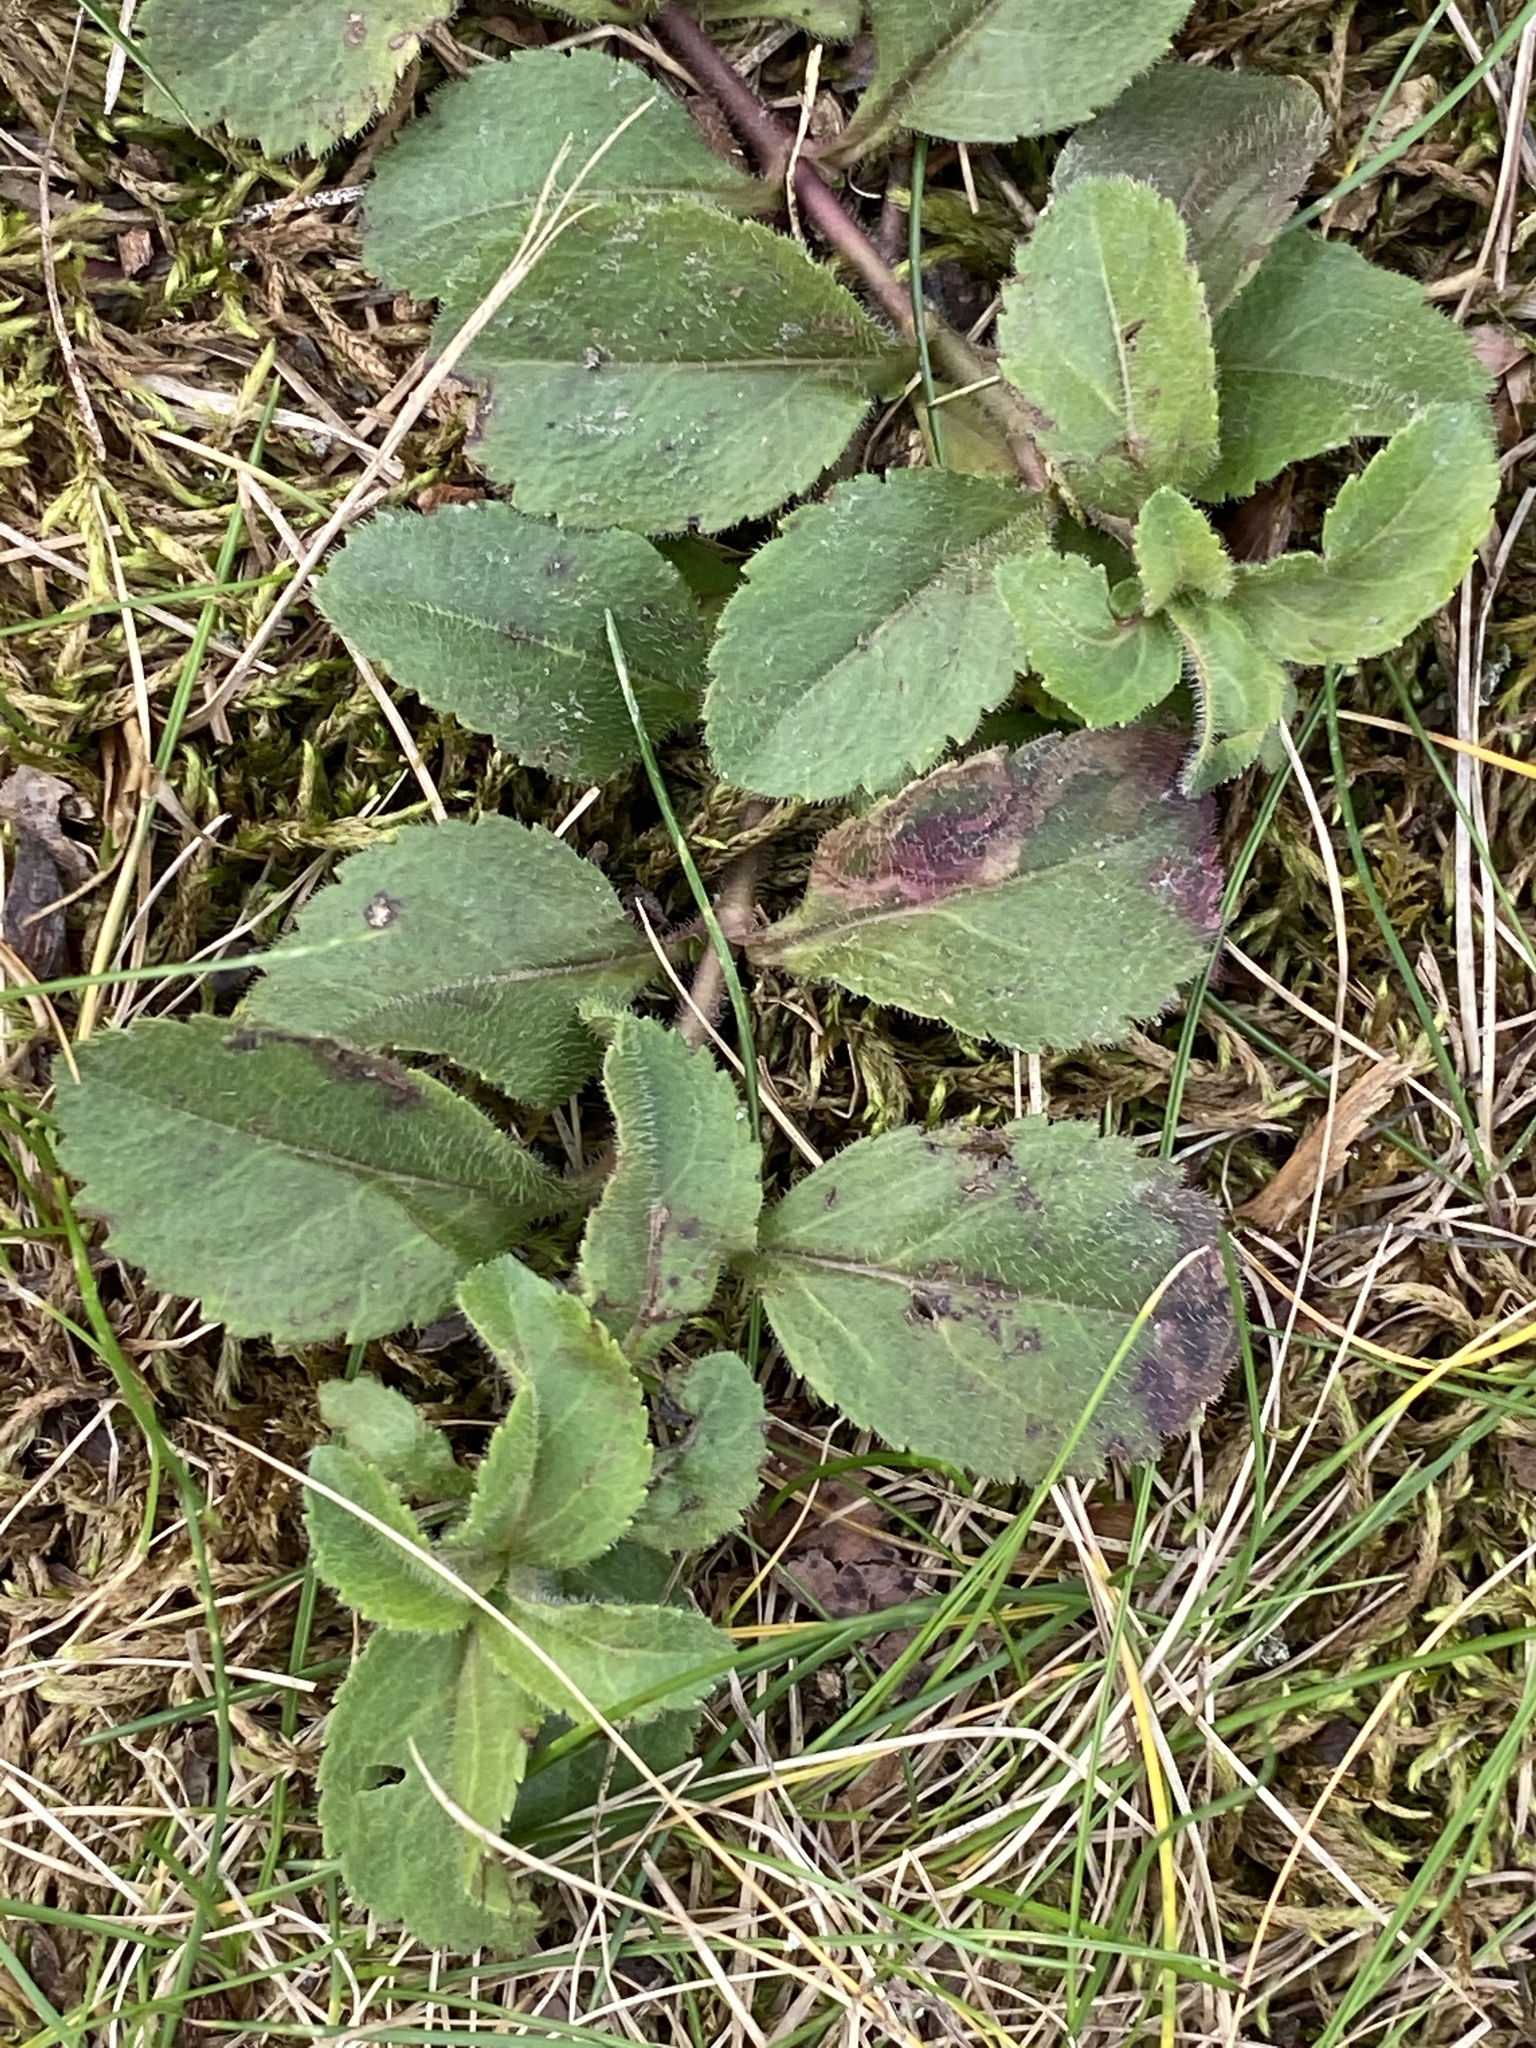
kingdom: Plantae
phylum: Tracheophyta
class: Magnoliopsida
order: Lamiales
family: Plantaginaceae
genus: Veronica
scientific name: Veronica officinalis
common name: Common speedwell
